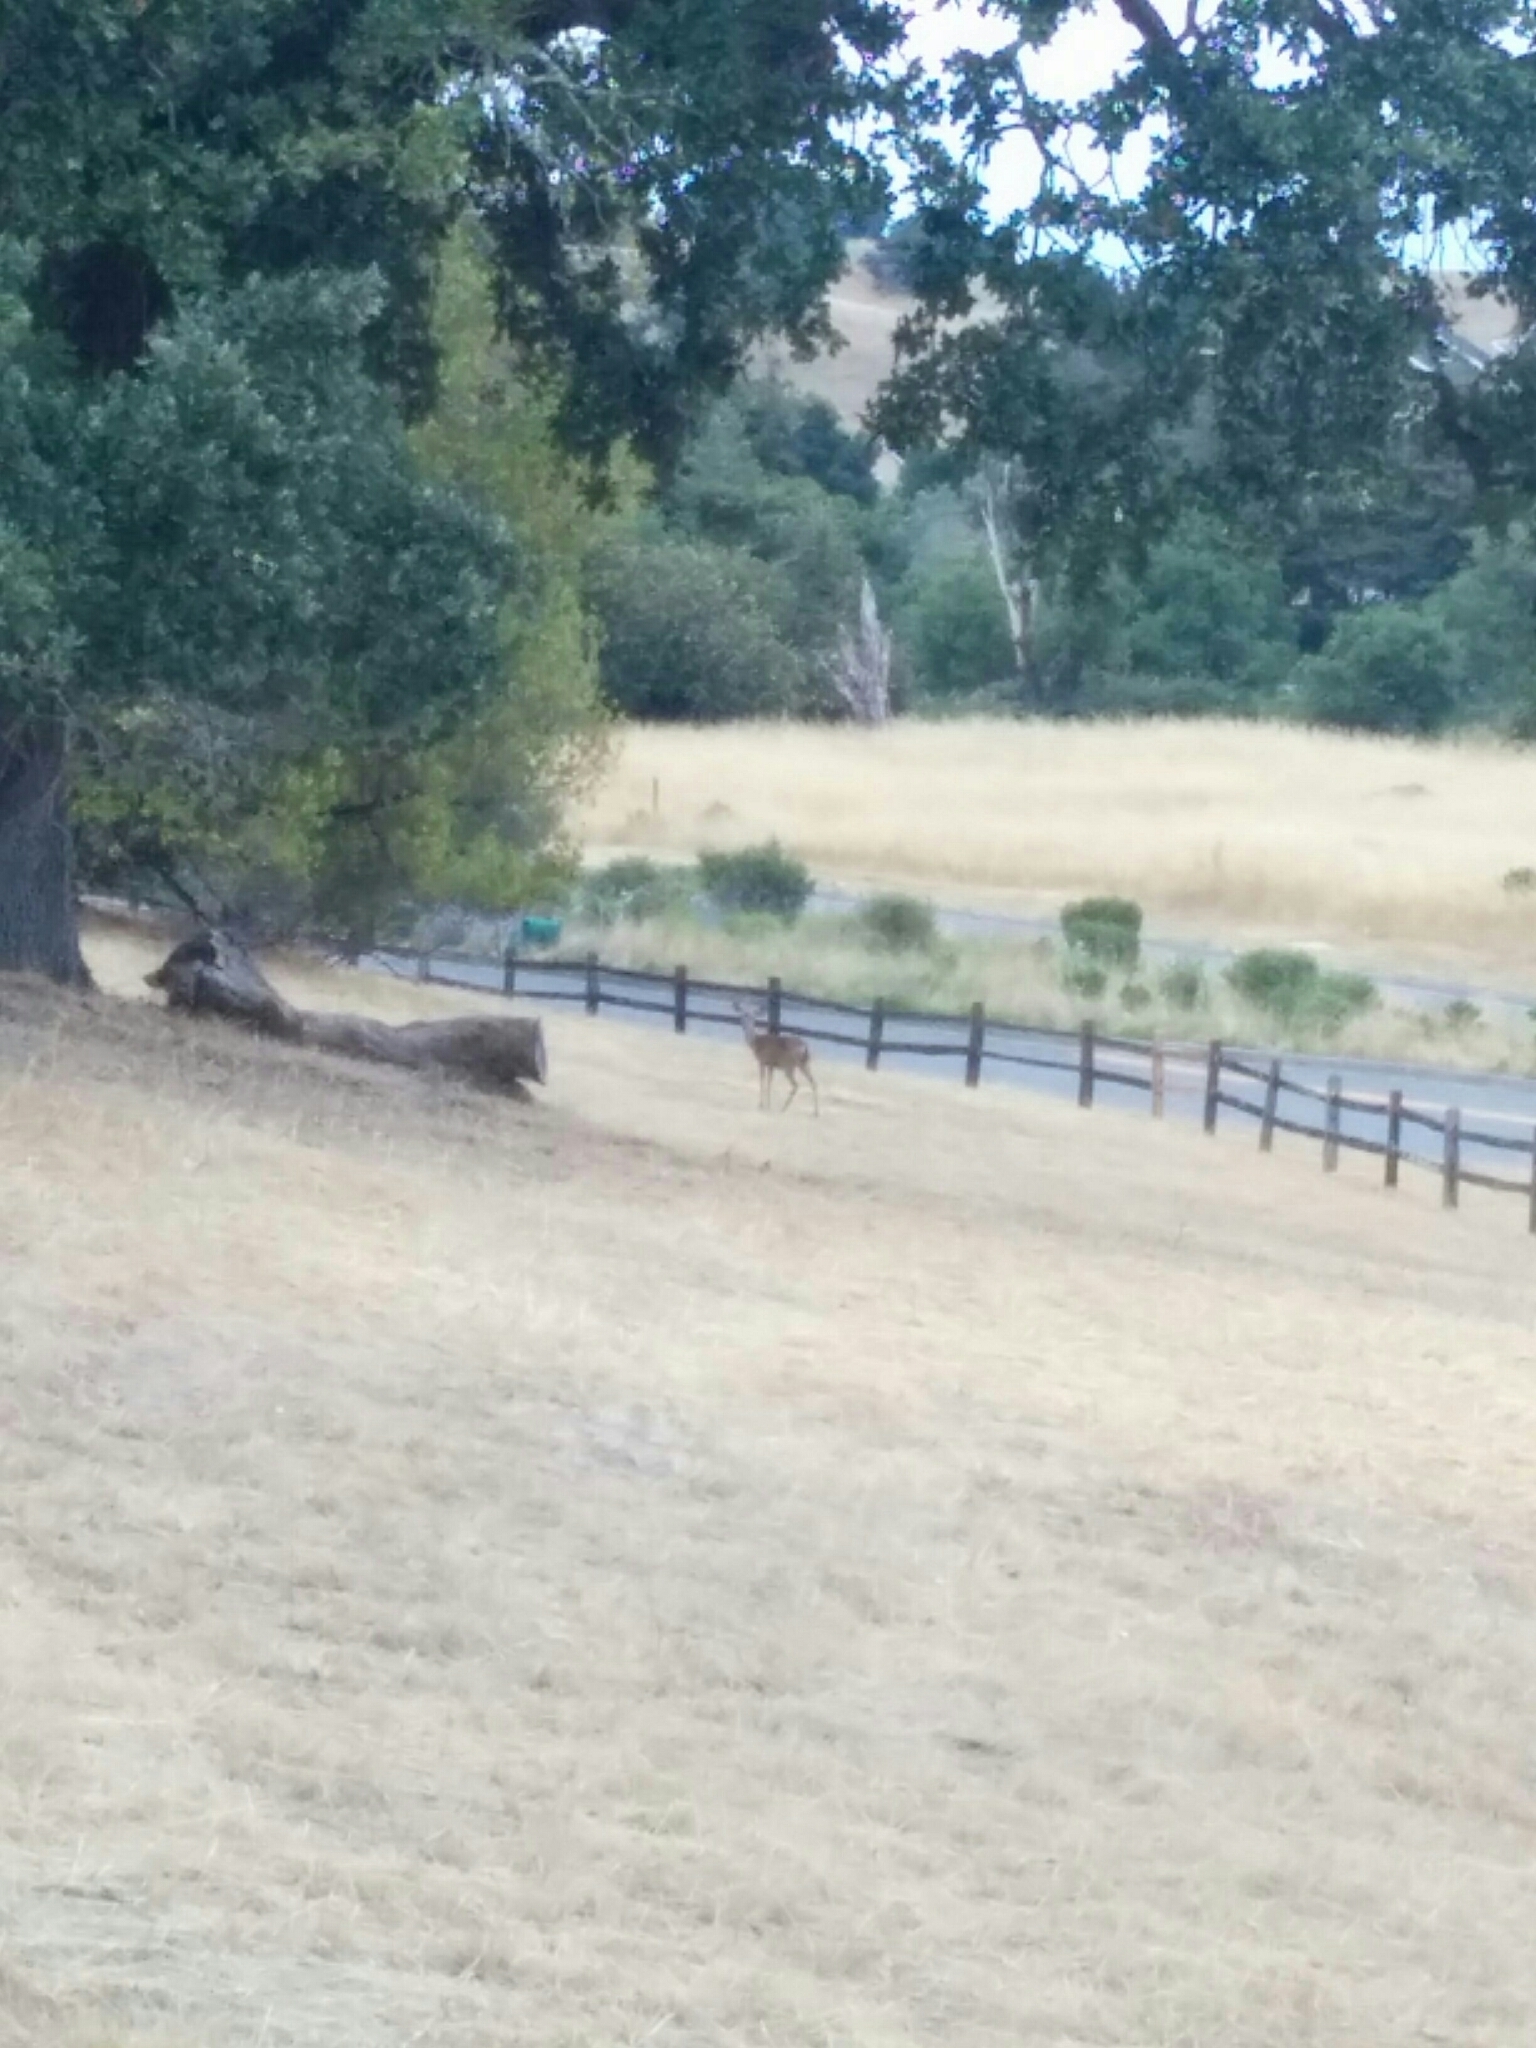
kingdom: Animalia
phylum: Chordata
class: Mammalia
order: Artiodactyla
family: Cervidae
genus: Odocoileus
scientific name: Odocoileus hemionus
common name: Mule deer
